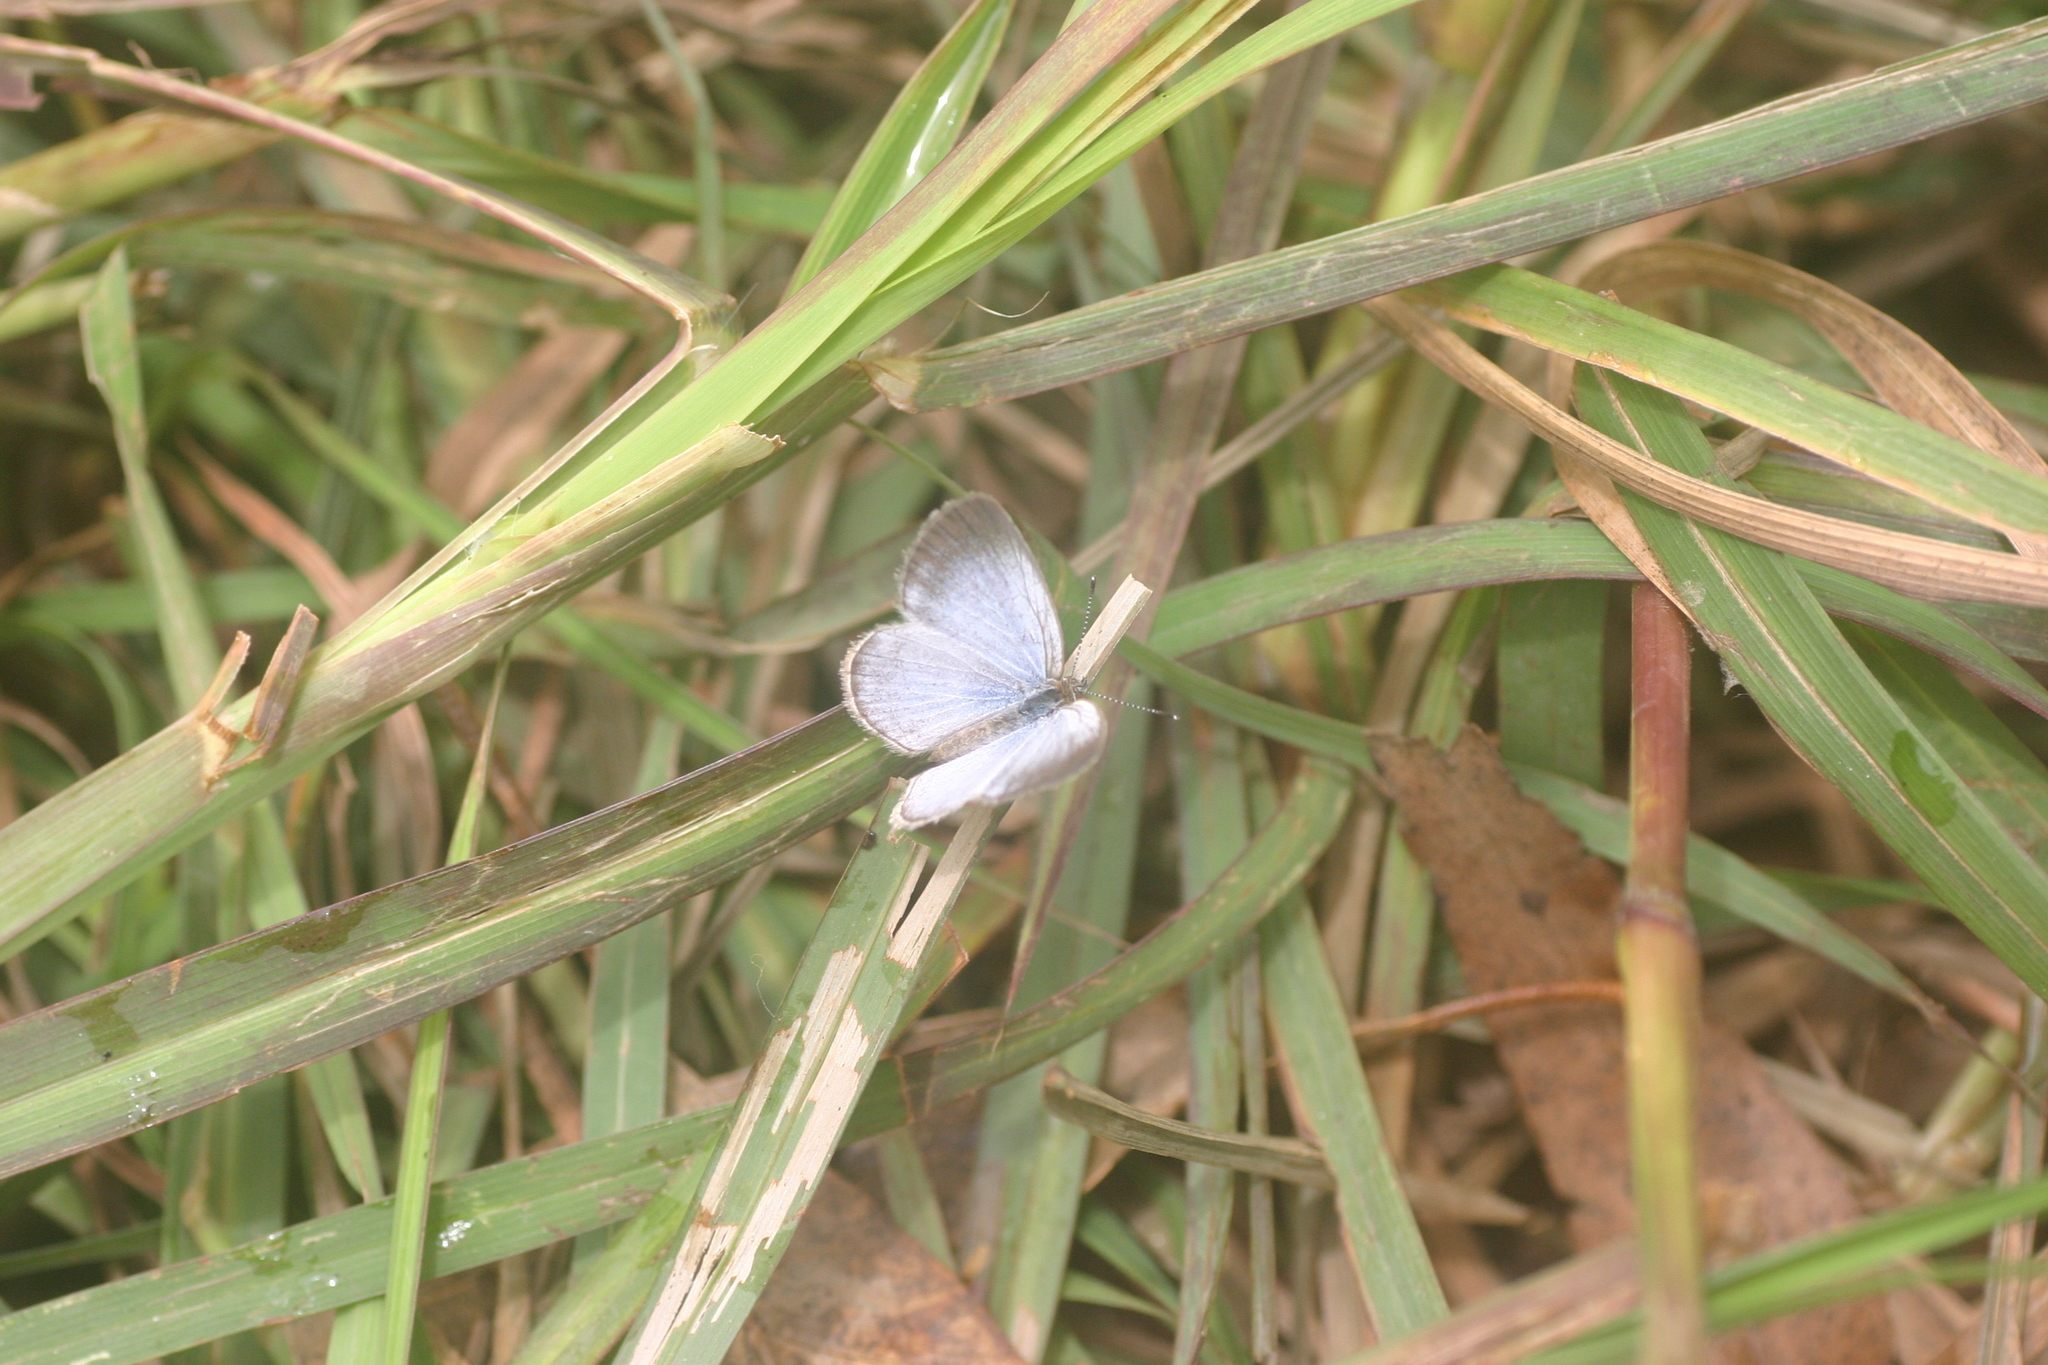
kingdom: Animalia
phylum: Arthropoda
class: Insecta
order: Lepidoptera
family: Lycaenidae
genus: Pseudozizeeria
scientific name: Pseudozizeeria maha
